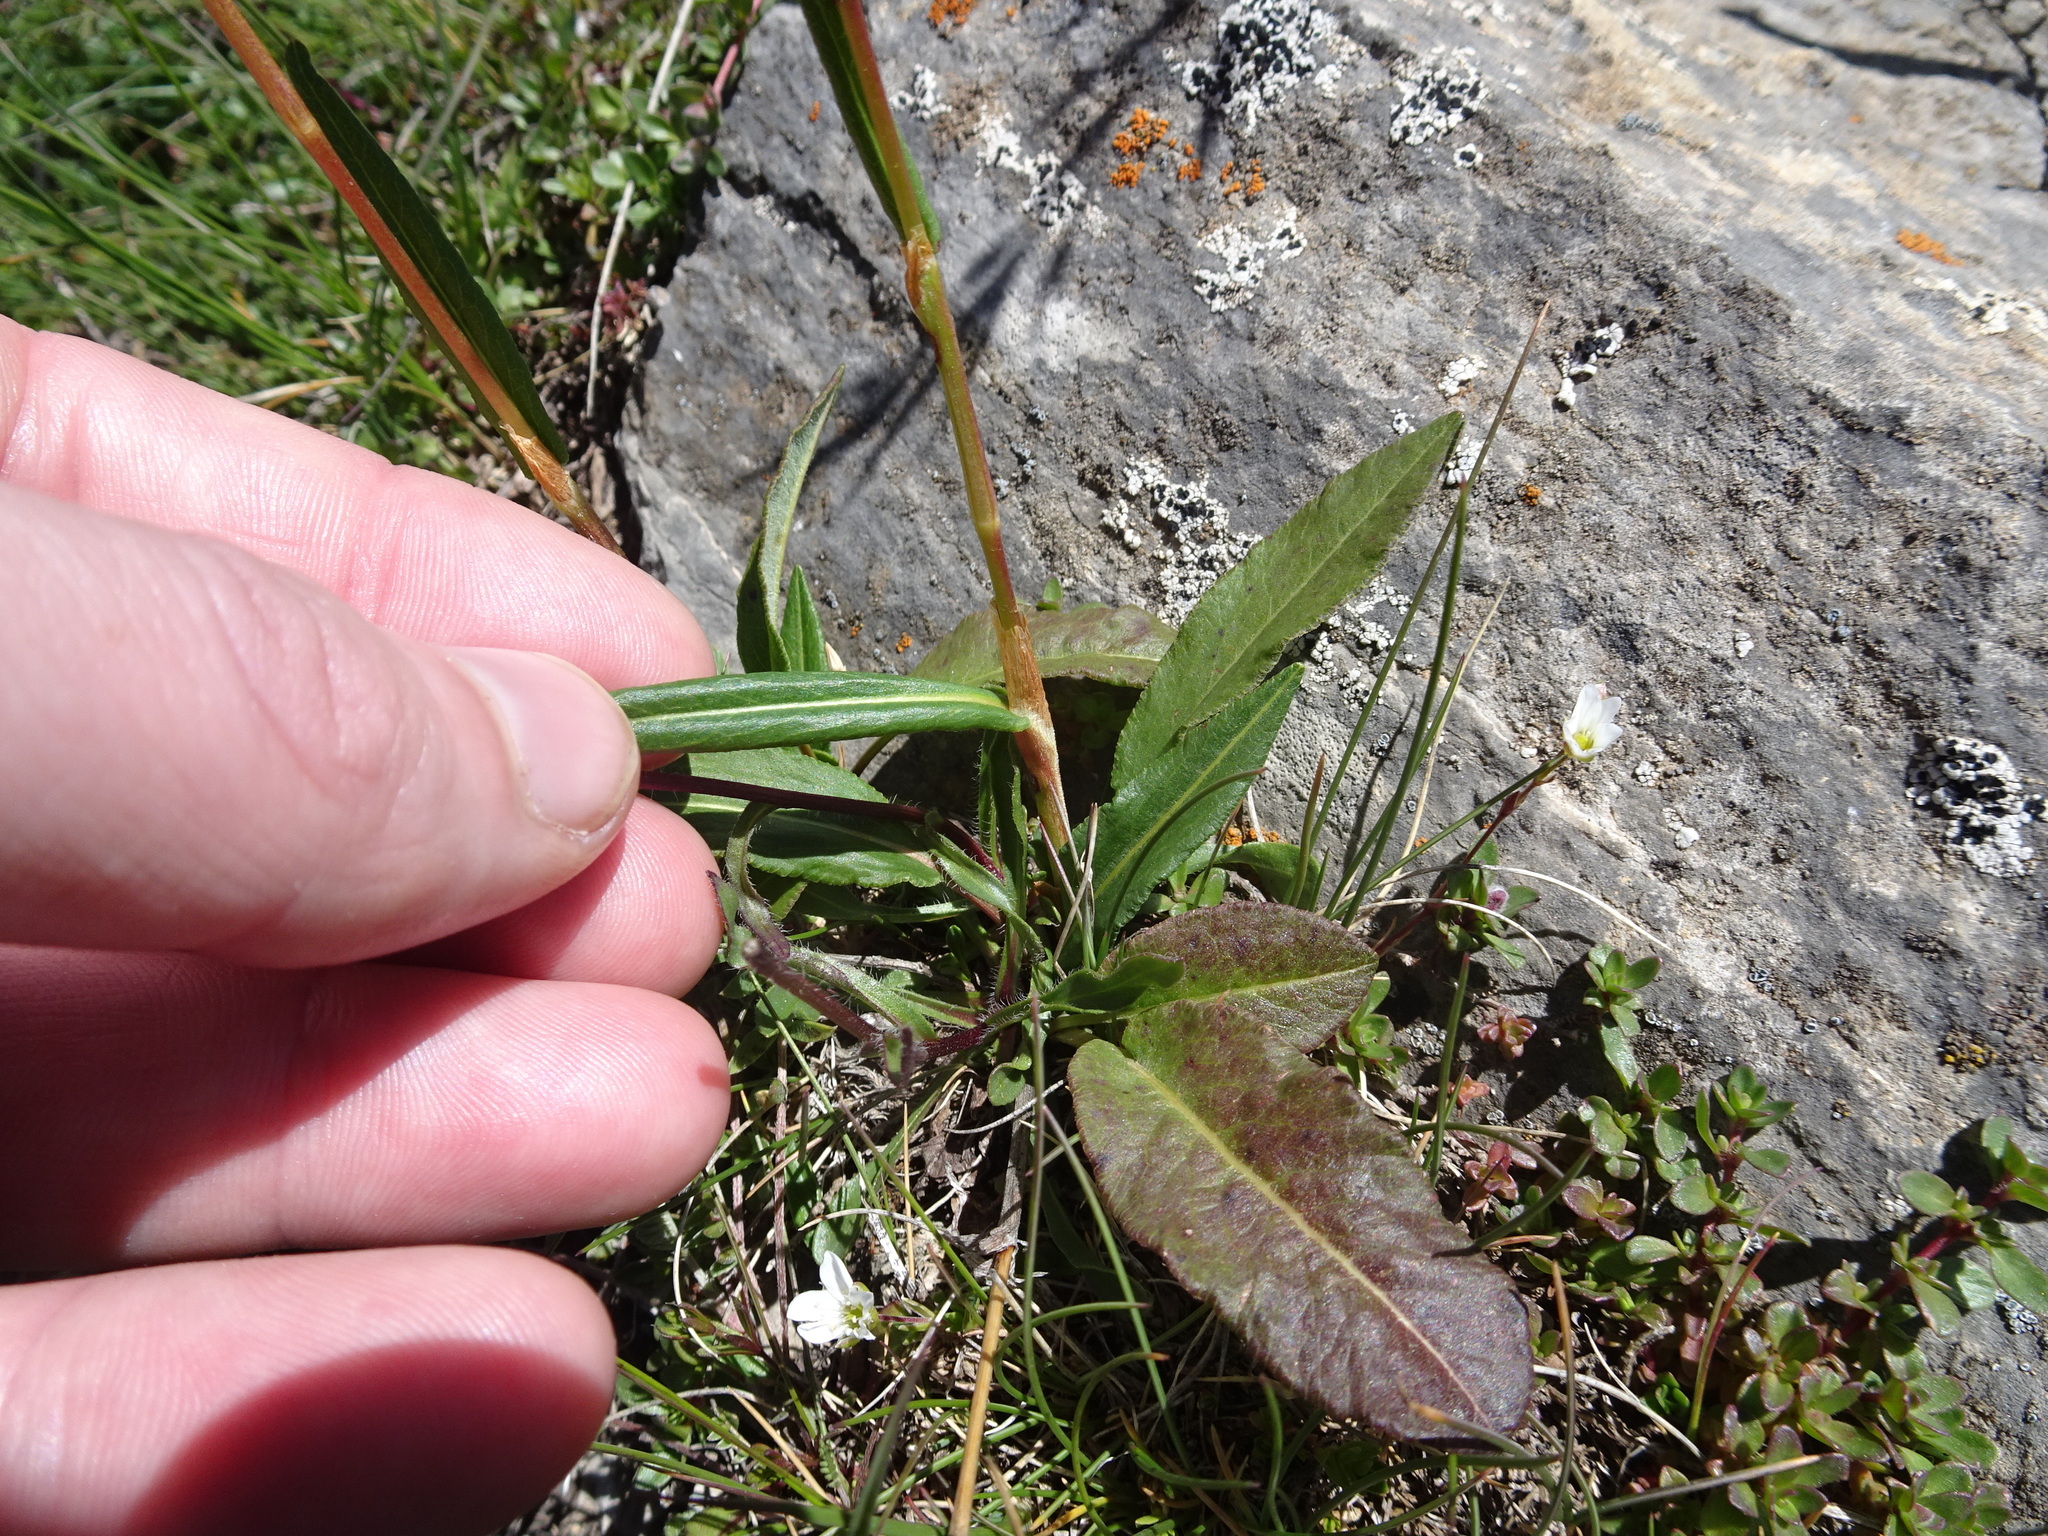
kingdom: Plantae
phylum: Tracheophyta
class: Magnoliopsida
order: Caryophyllales
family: Polygonaceae
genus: Bistorta
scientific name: Bistorta vivipara
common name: Alpine bistort
